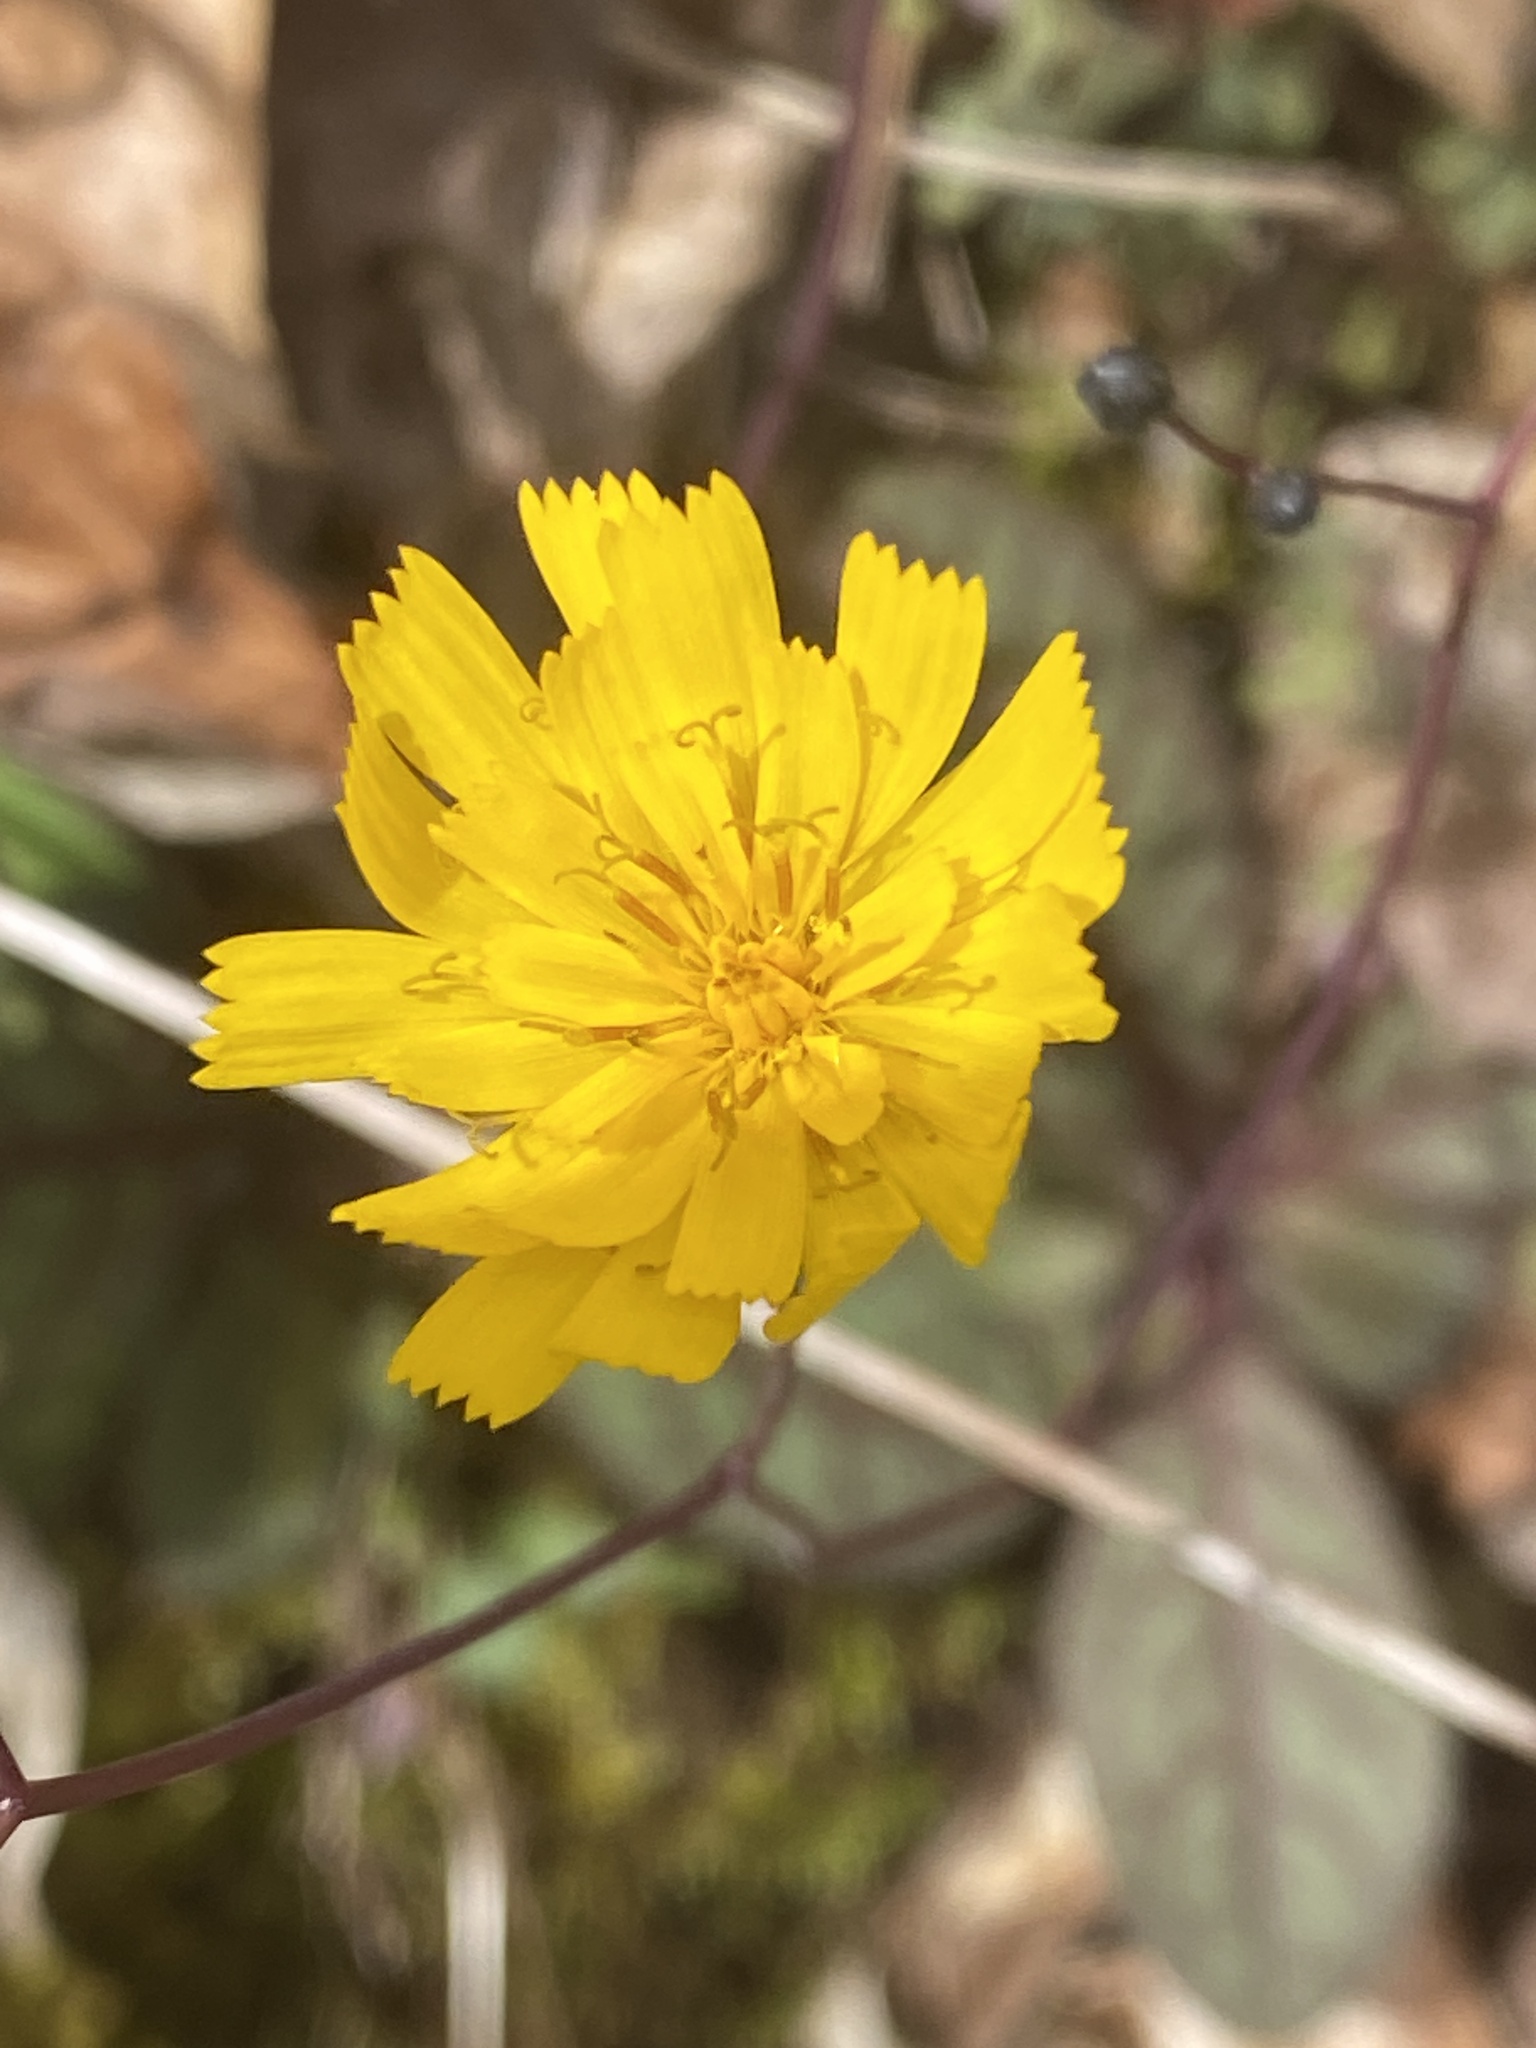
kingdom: Plantae
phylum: Tracheophyta
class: Magnoliopsida
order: Asterales
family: Asteraceae
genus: Hieracium
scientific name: Hieracium venosum
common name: Rattlesnake hawkweed
